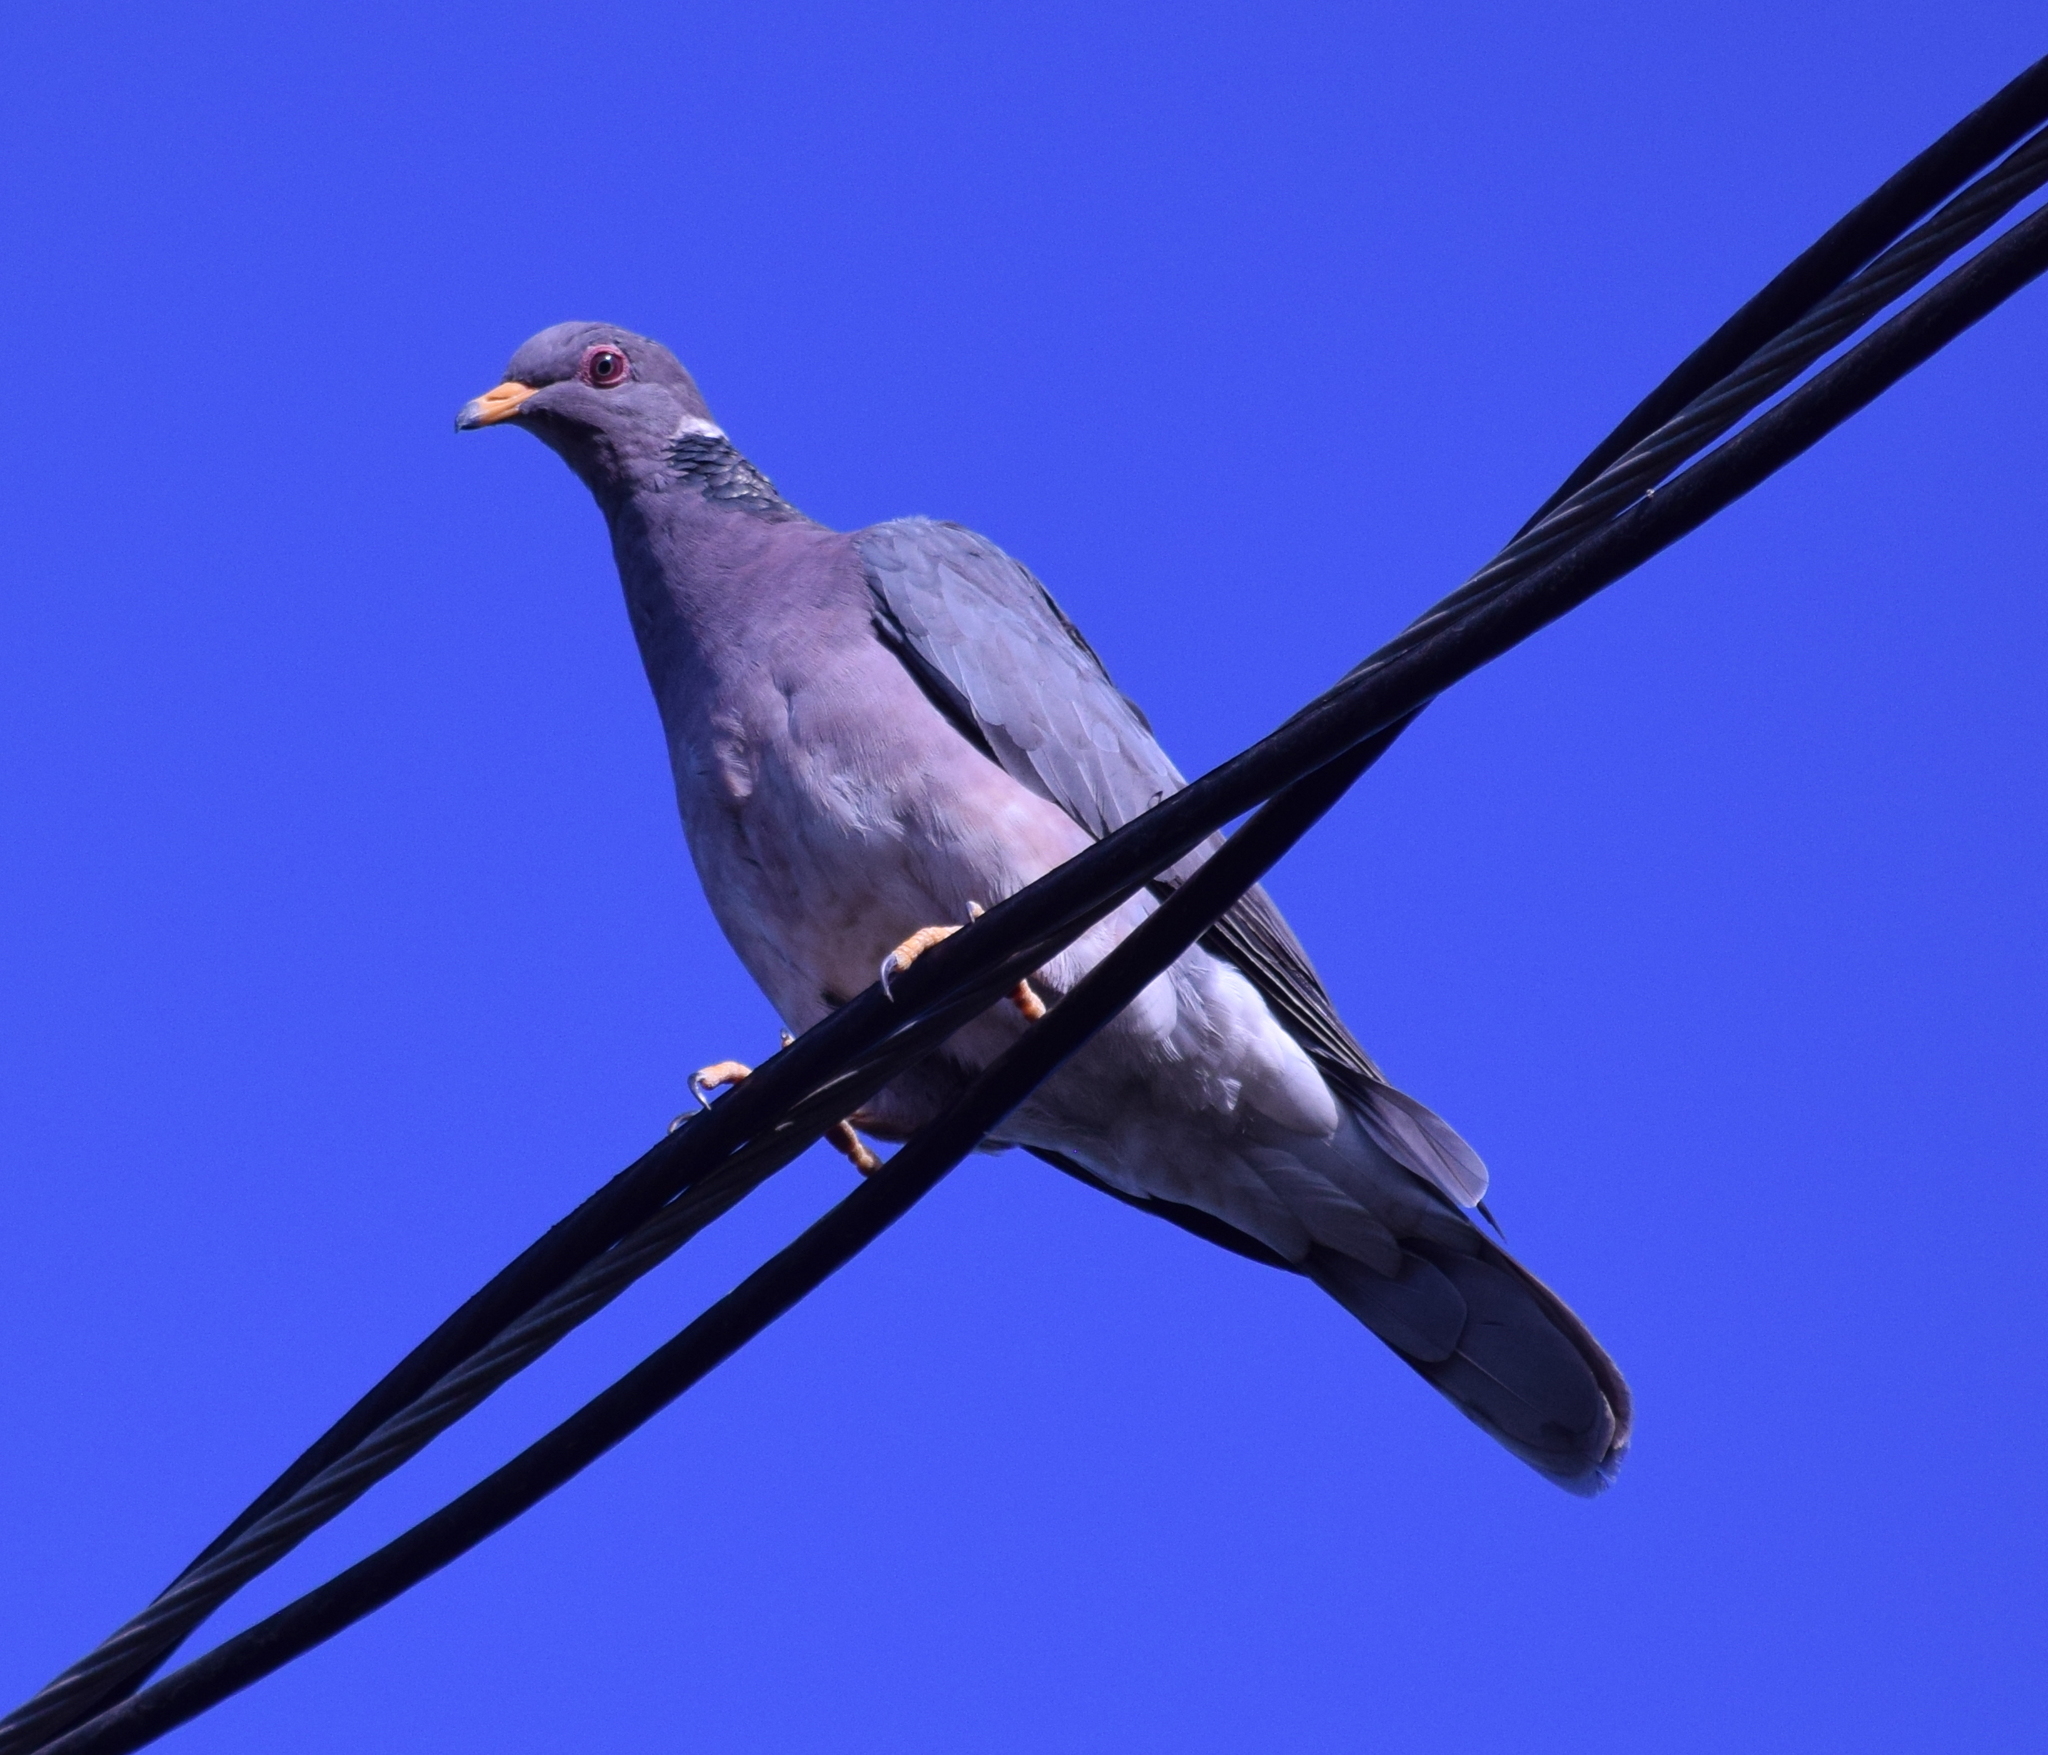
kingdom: Animalia
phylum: Chordata
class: Aves
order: Columbiformes
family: Columbidae
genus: Patagioenas
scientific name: Patagioenas fasciata
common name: Band-tailed pigeon
